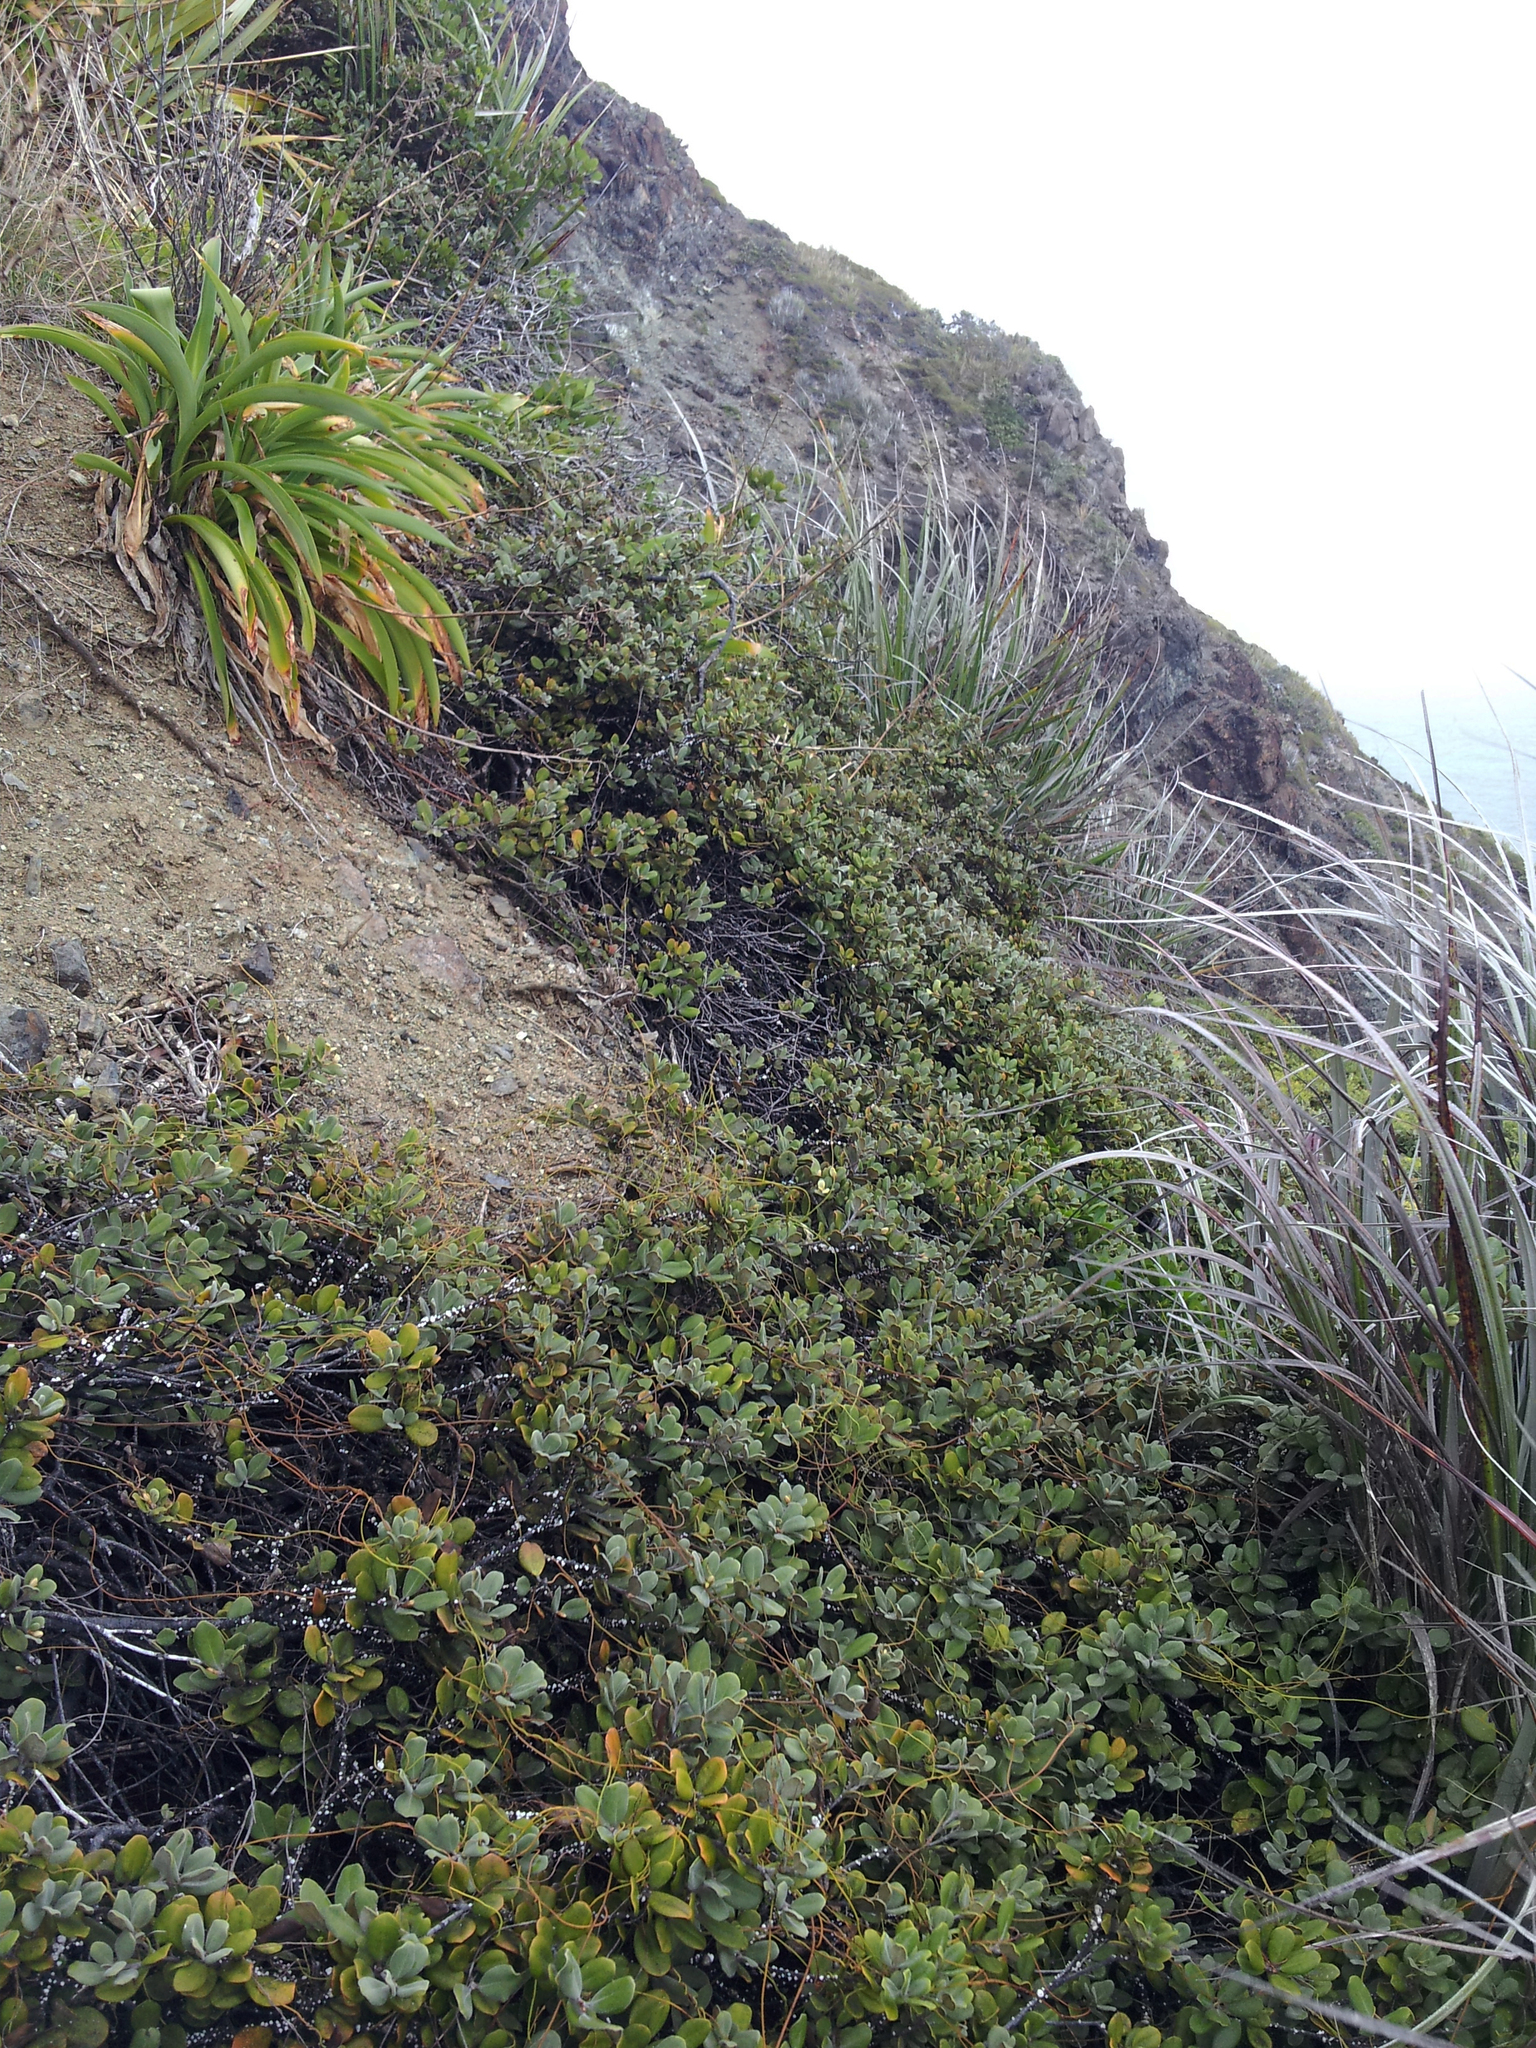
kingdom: Plantae
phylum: Tracheophyta
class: Magnoliopsida
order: Apiales
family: Pittosporaceae
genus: Pittosporum
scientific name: Pittosporum serpentinum
